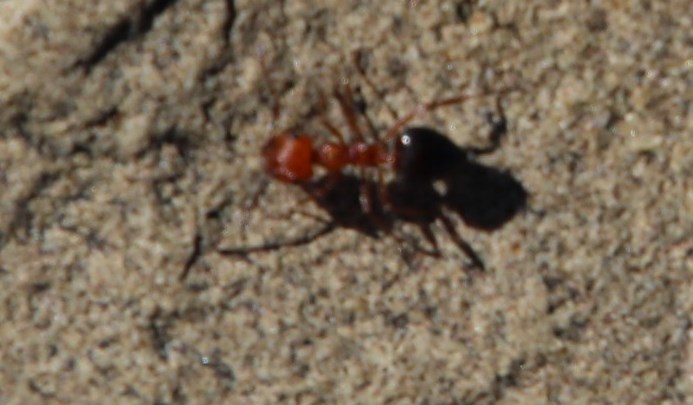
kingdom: Animalia
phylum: Arthropoda
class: Insecta
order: Hymenoptera
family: Formicidae
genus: Crematogaster
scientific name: Crematogaster melanogaster
